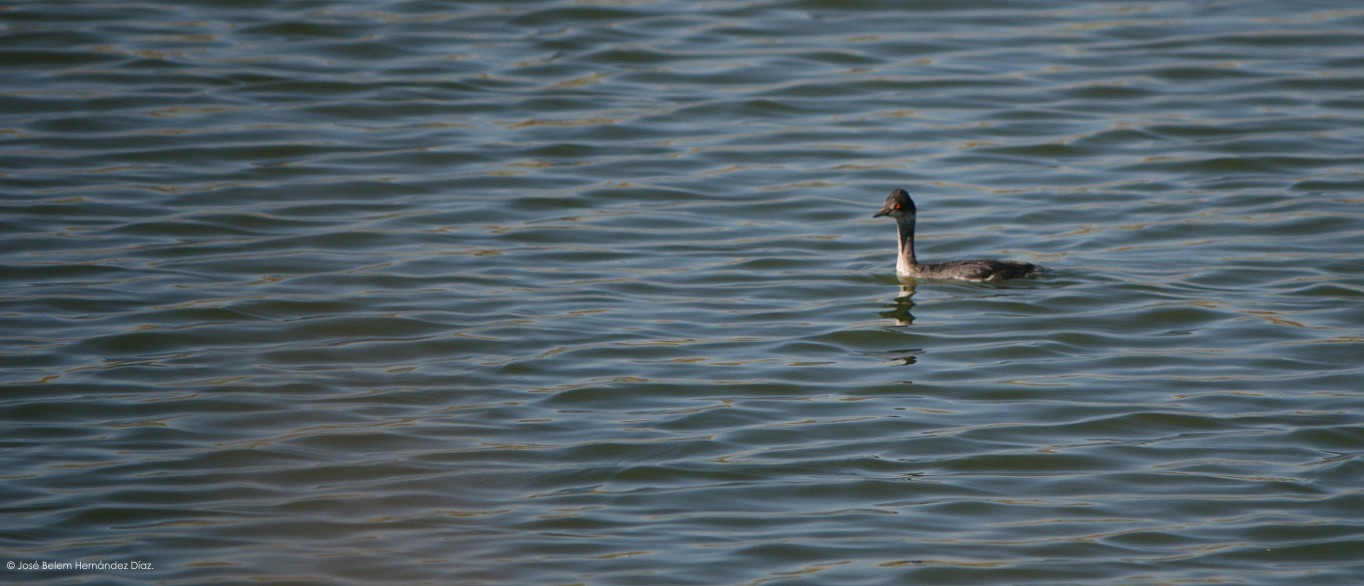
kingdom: Animalia
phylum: Chordata
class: Aves
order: Podicipediformes
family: Podicipedidae
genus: Podiceps
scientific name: Podiceps nigricollis
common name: Black-necked grebe
